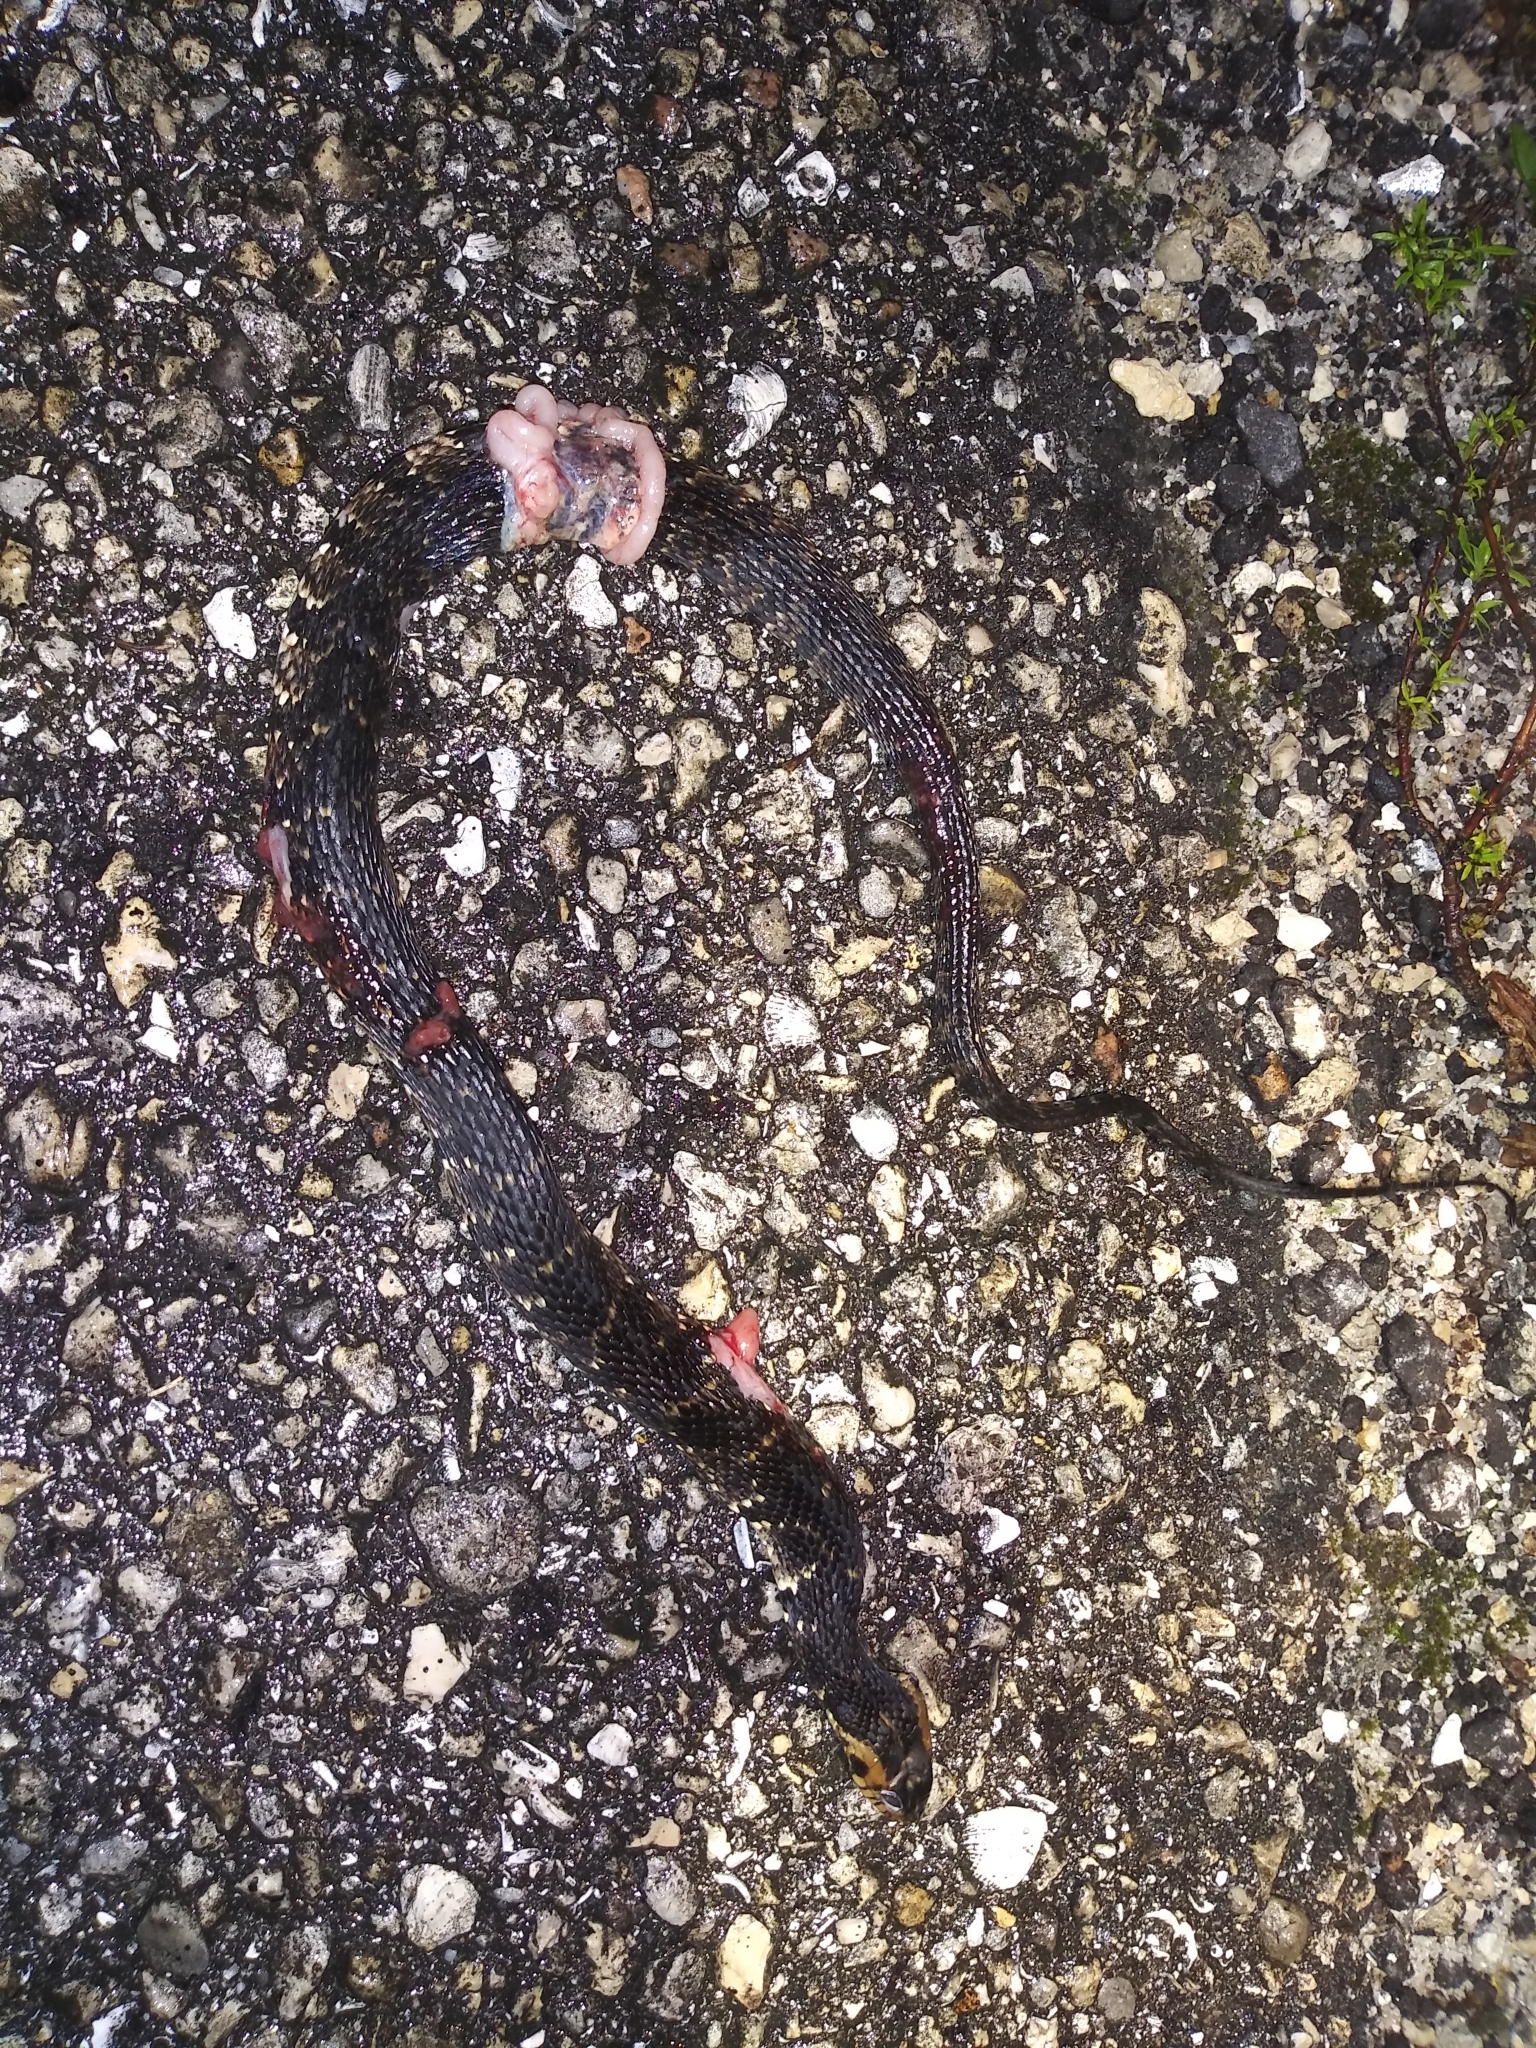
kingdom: Animalia
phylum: Chordata
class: Squamata
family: Colubridae
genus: Nerodia
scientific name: Nerodia fasciata
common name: Southern water snake
